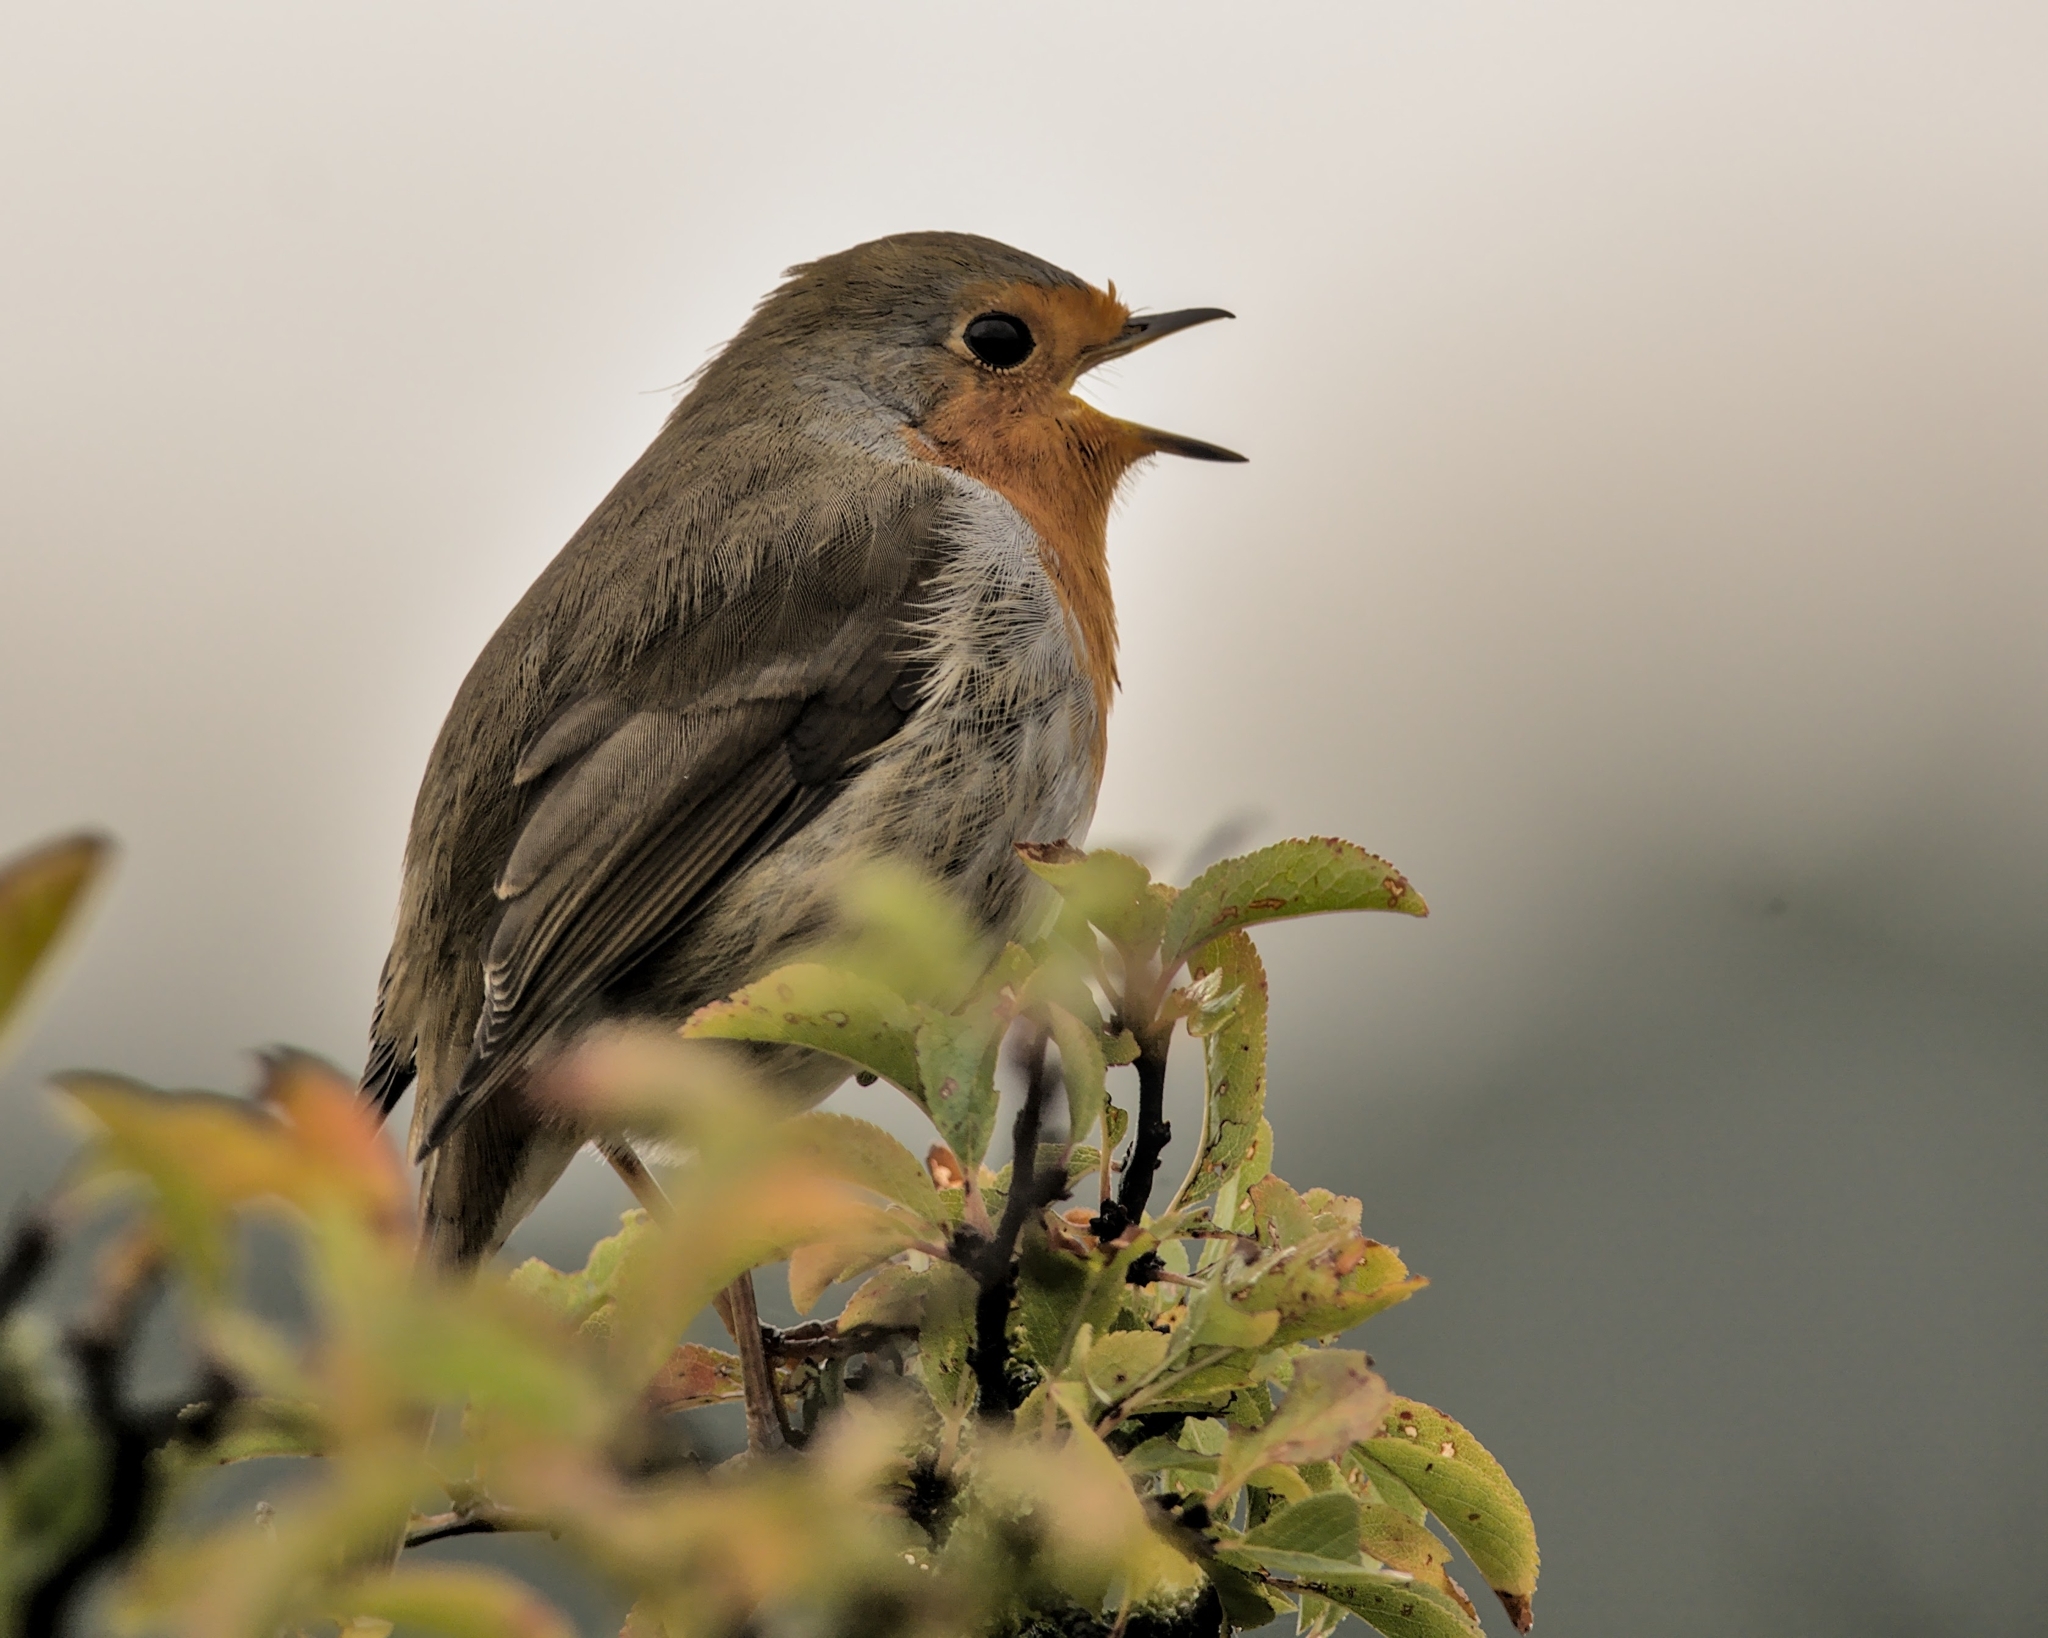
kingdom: Animalia
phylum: Chordata
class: Aves
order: Passeriformes
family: Muscicapidae
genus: Erithacus
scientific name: Erithacus rubecula
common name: European robin
